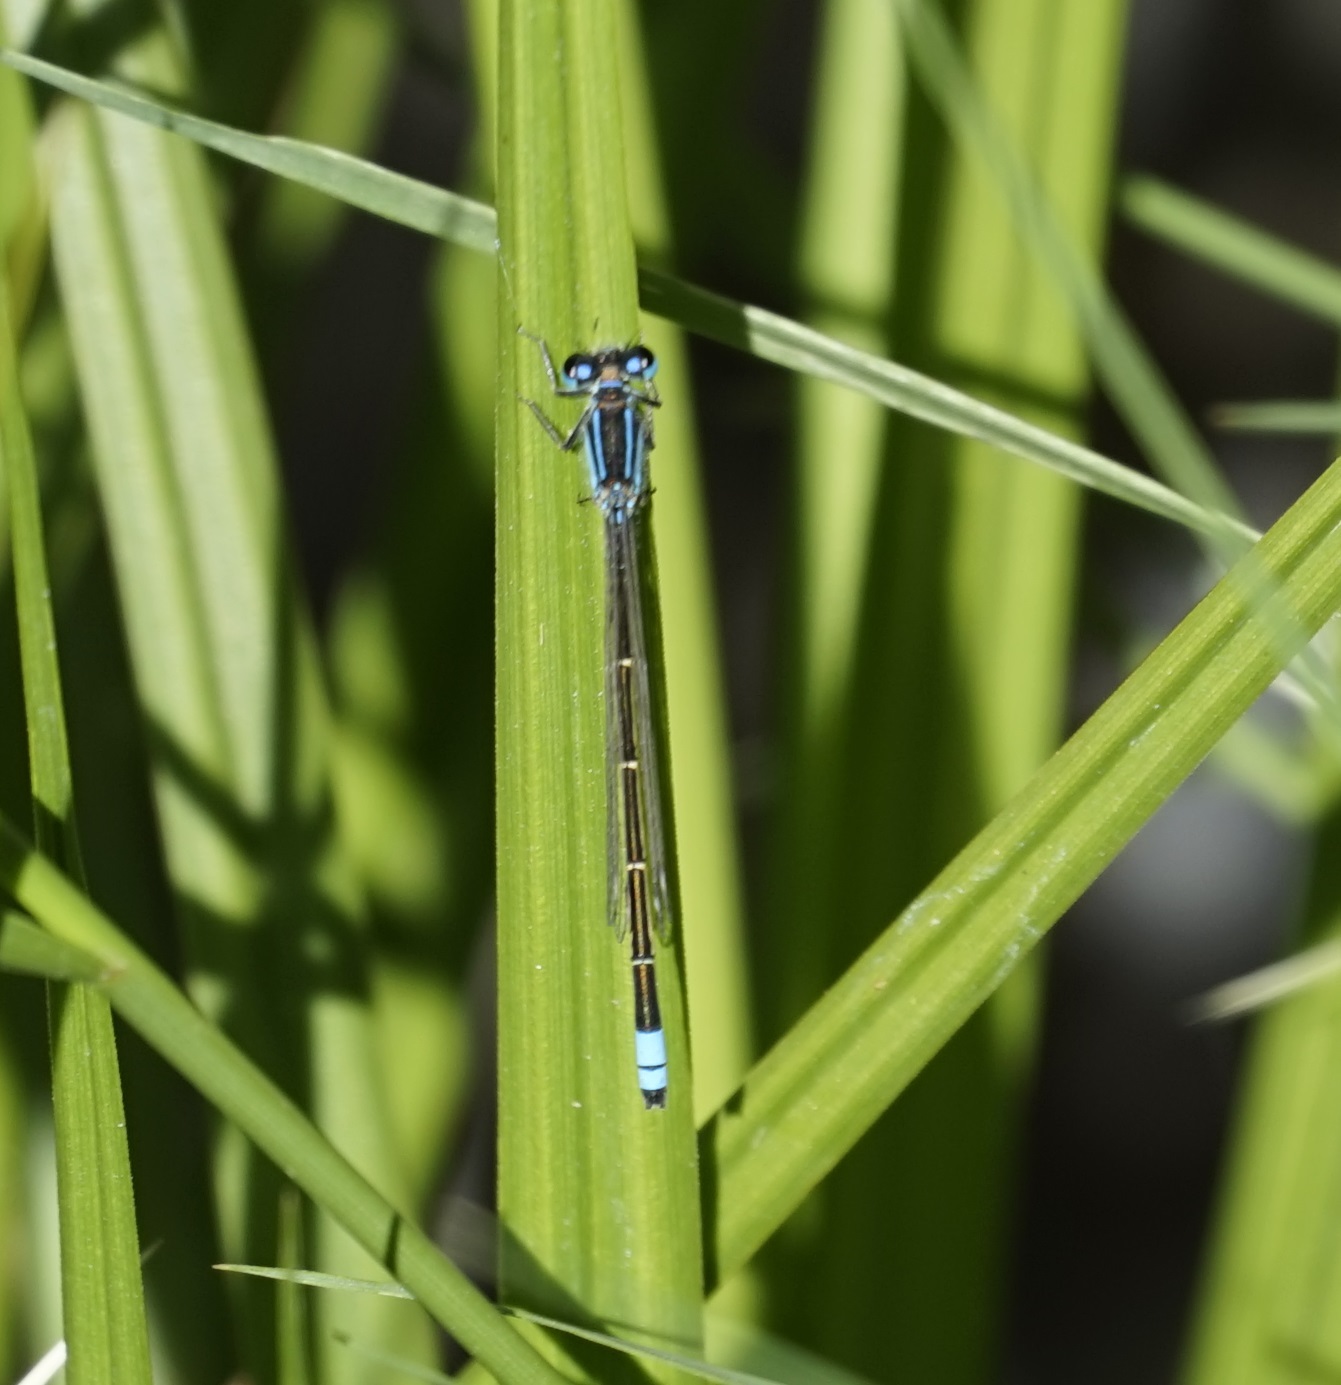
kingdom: Animalia
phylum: Arthropoda
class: Insecta
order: Odonata
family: Coenagrionidae
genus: Ischnura
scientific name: Ischnura heterosticta
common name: Common bluetail
